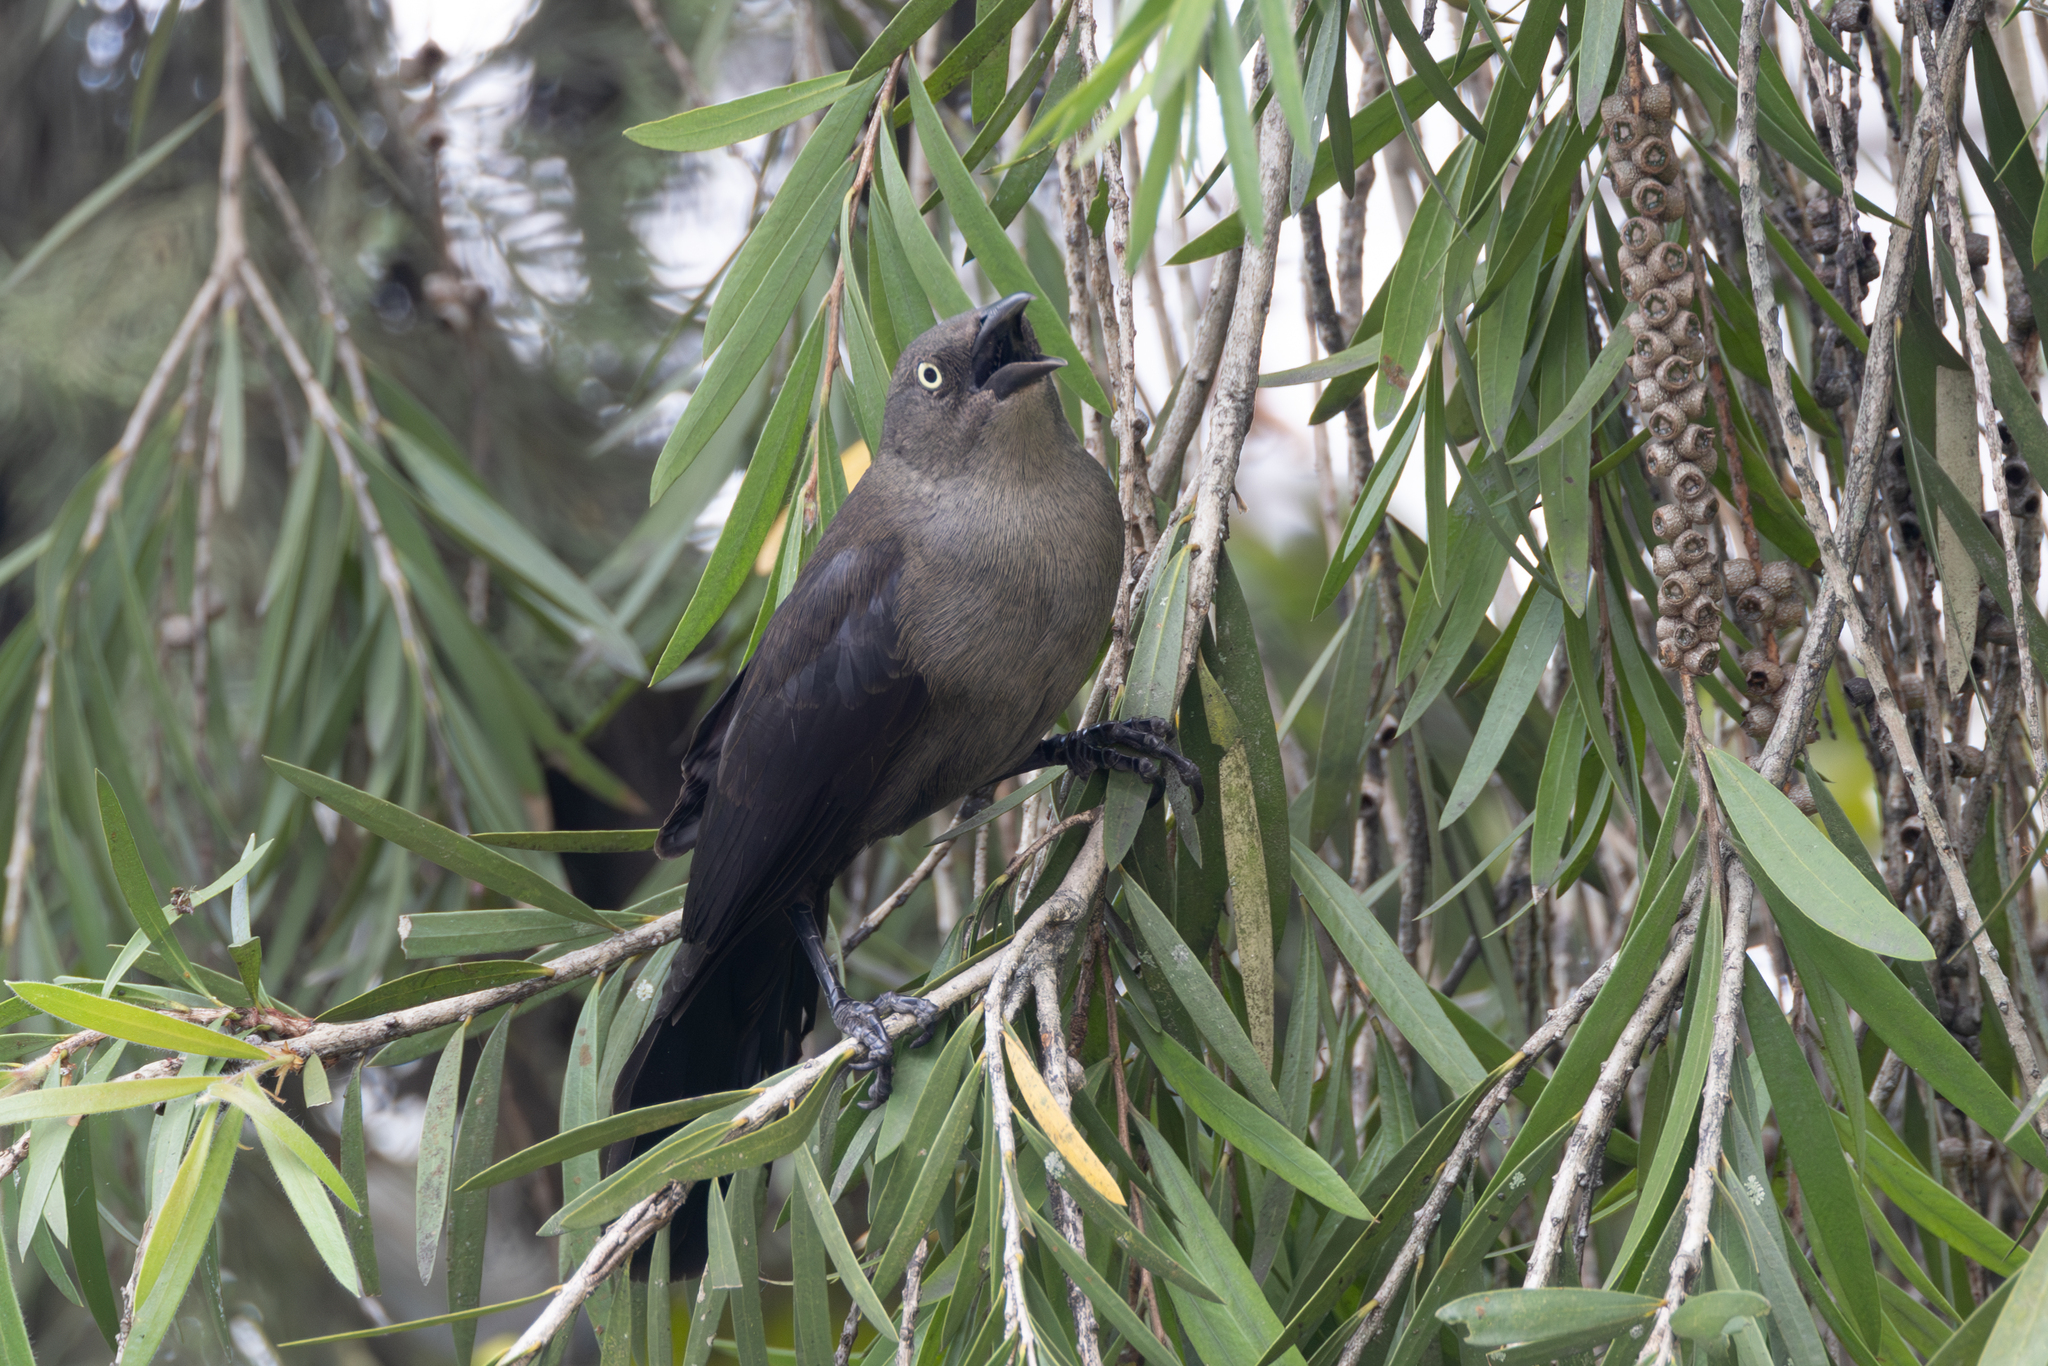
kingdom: Animalia
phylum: Chordata
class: Aves
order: Passeriformes
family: Icteridae
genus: Quiscalus
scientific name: Quiscalus lugubris
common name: Carib grackle
